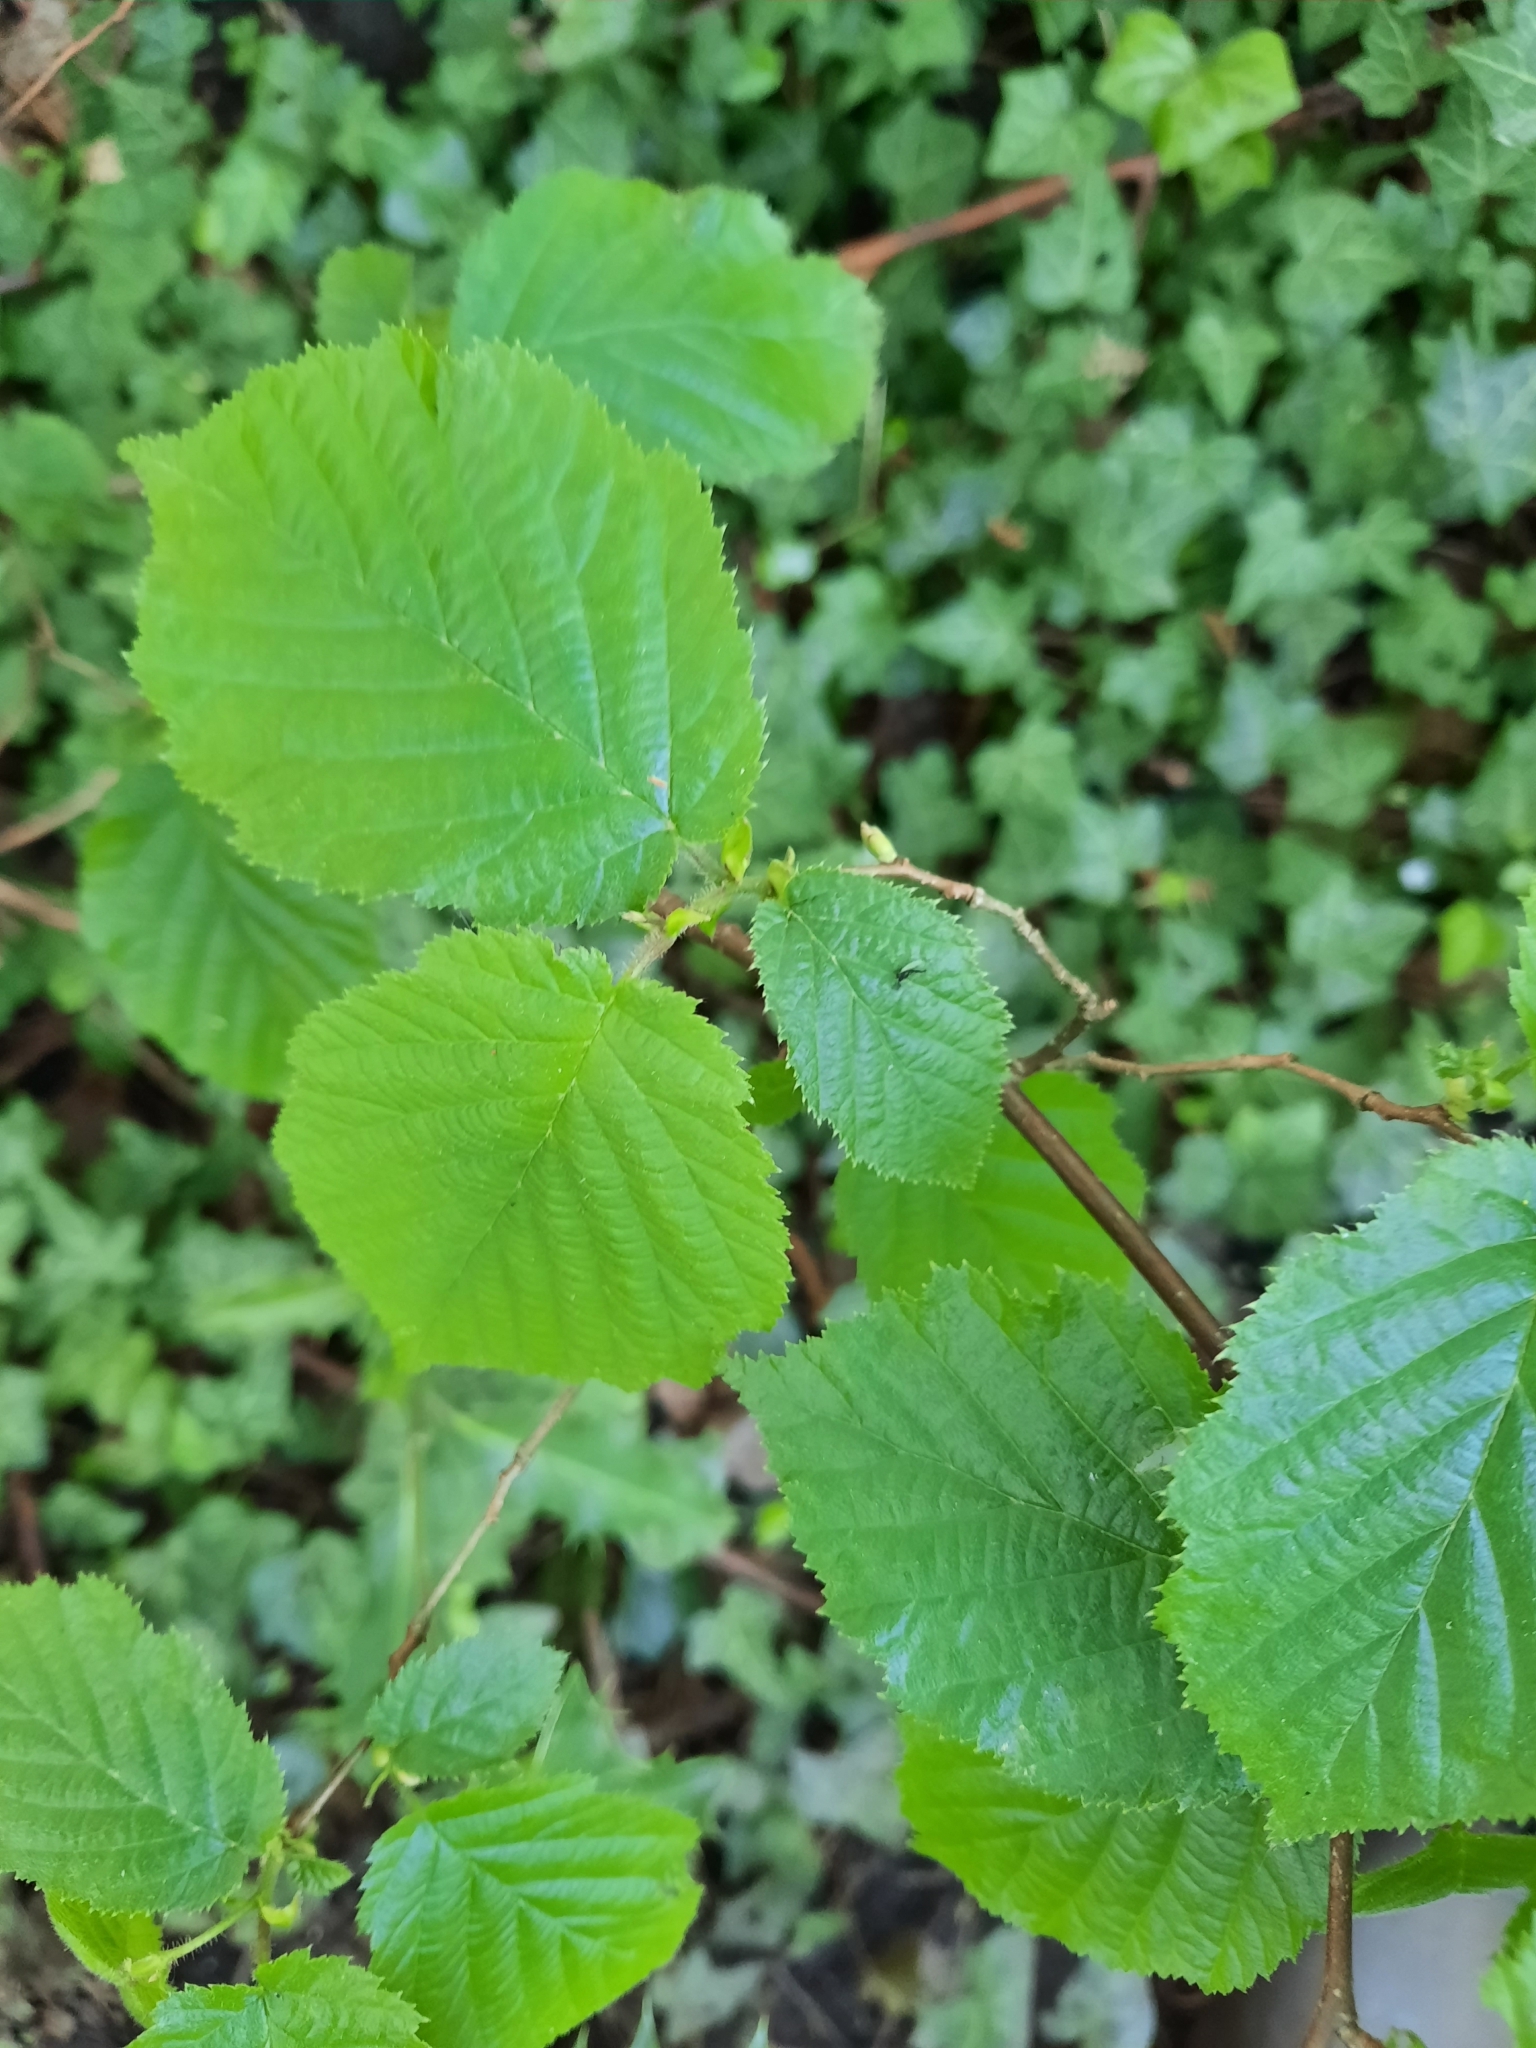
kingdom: Plantae
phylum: Tracheophyta
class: Magnoliopsida
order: Fagales
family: Betulaceae
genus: Corylus
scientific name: Corylus avellana
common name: European hazel
